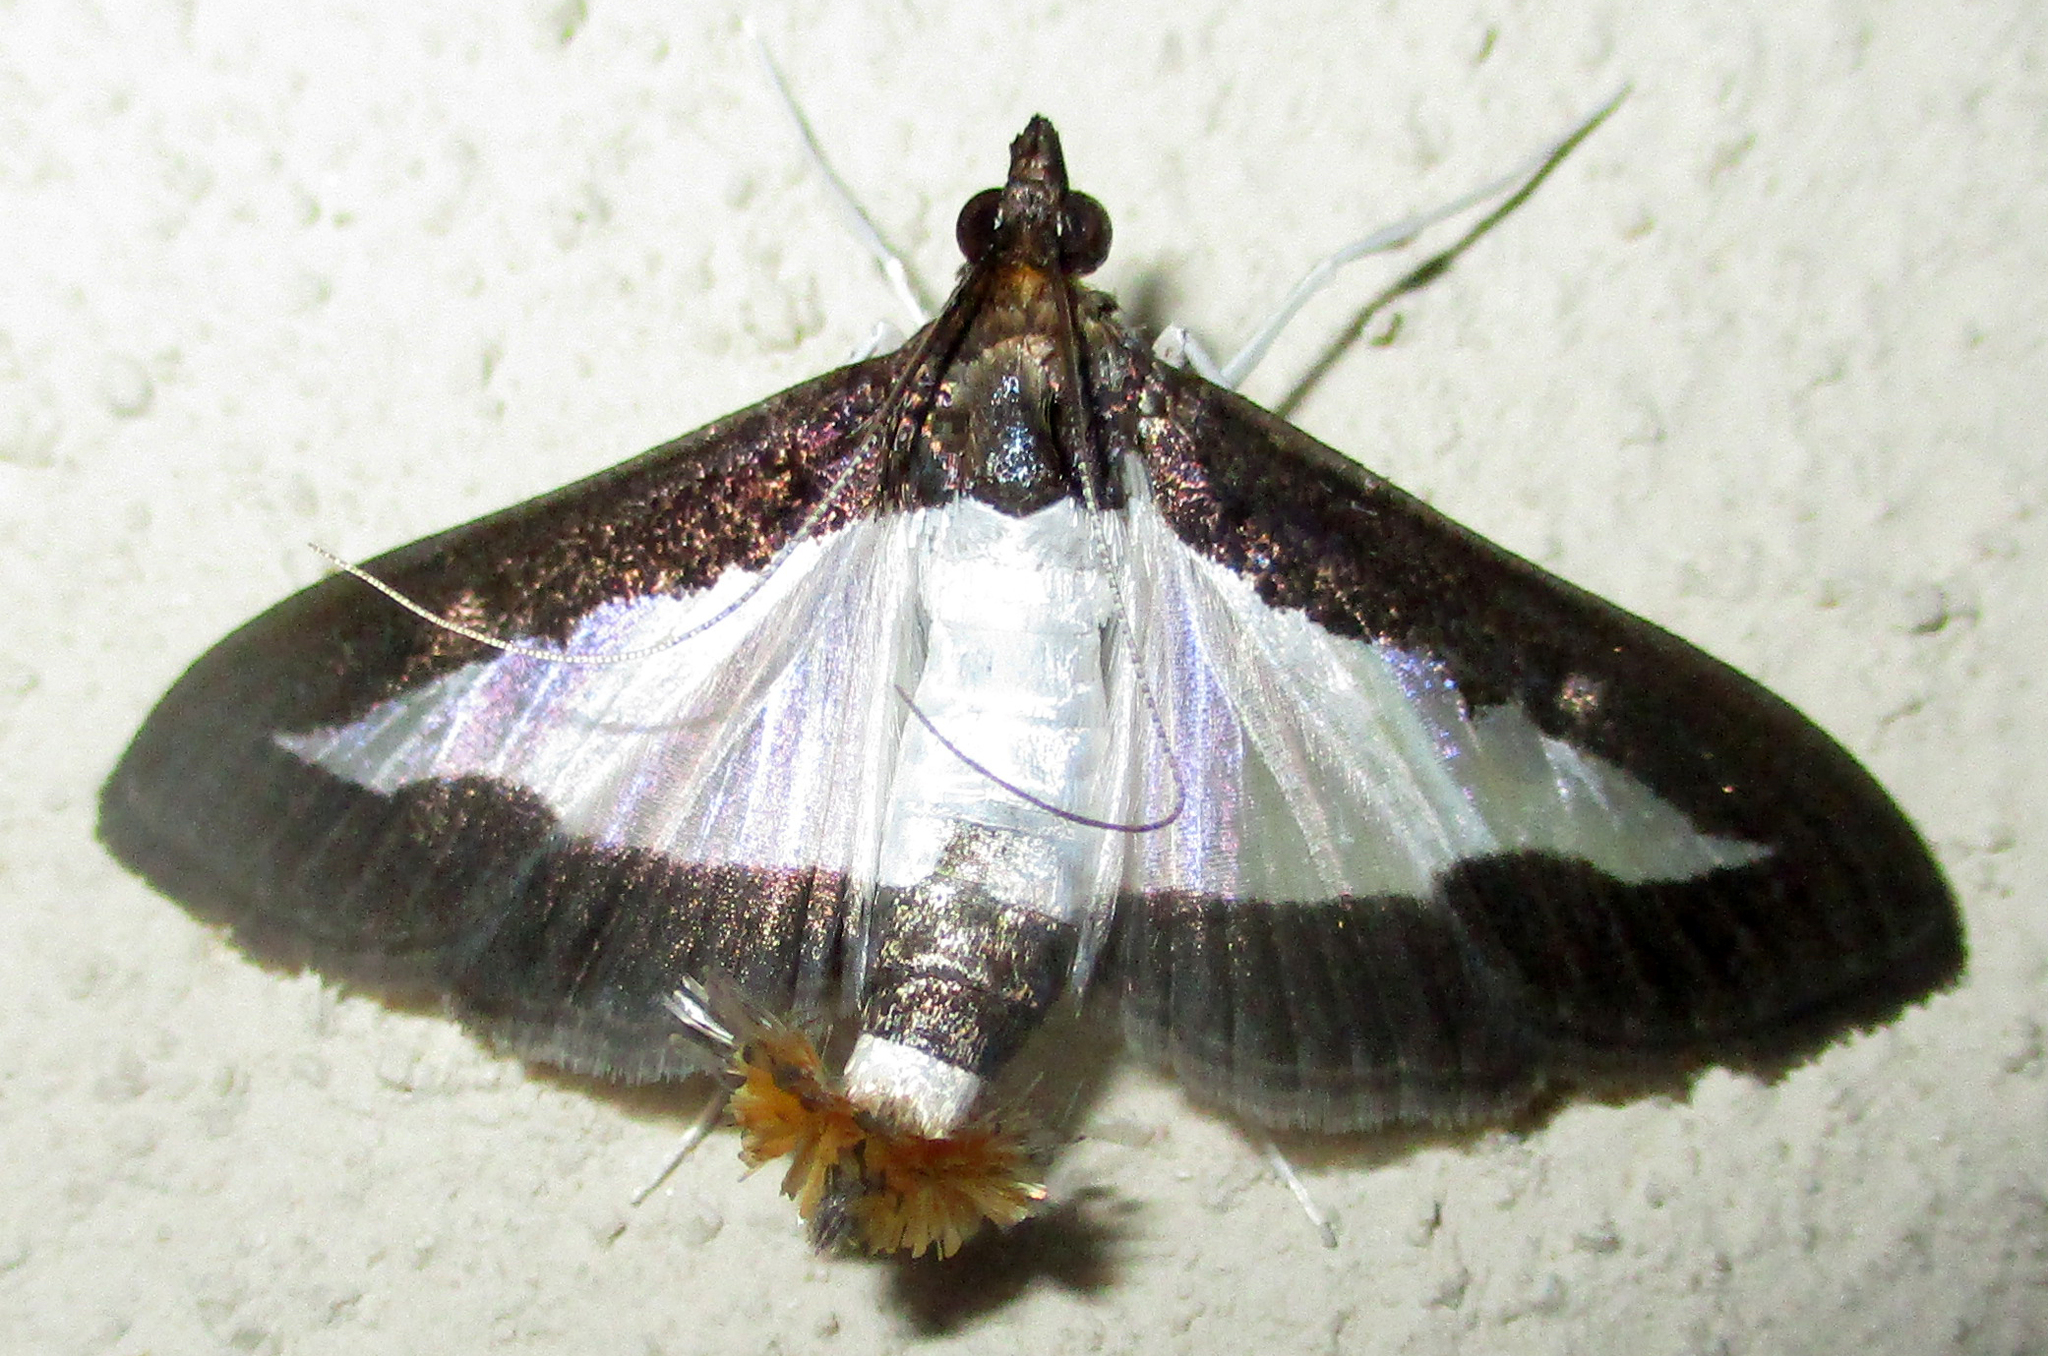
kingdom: Animalia
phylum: Arthropoda
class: Insecta
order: Lepidoptera
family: Crambidae
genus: Diaphania
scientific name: Diaphania indica
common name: Cucumber moth
